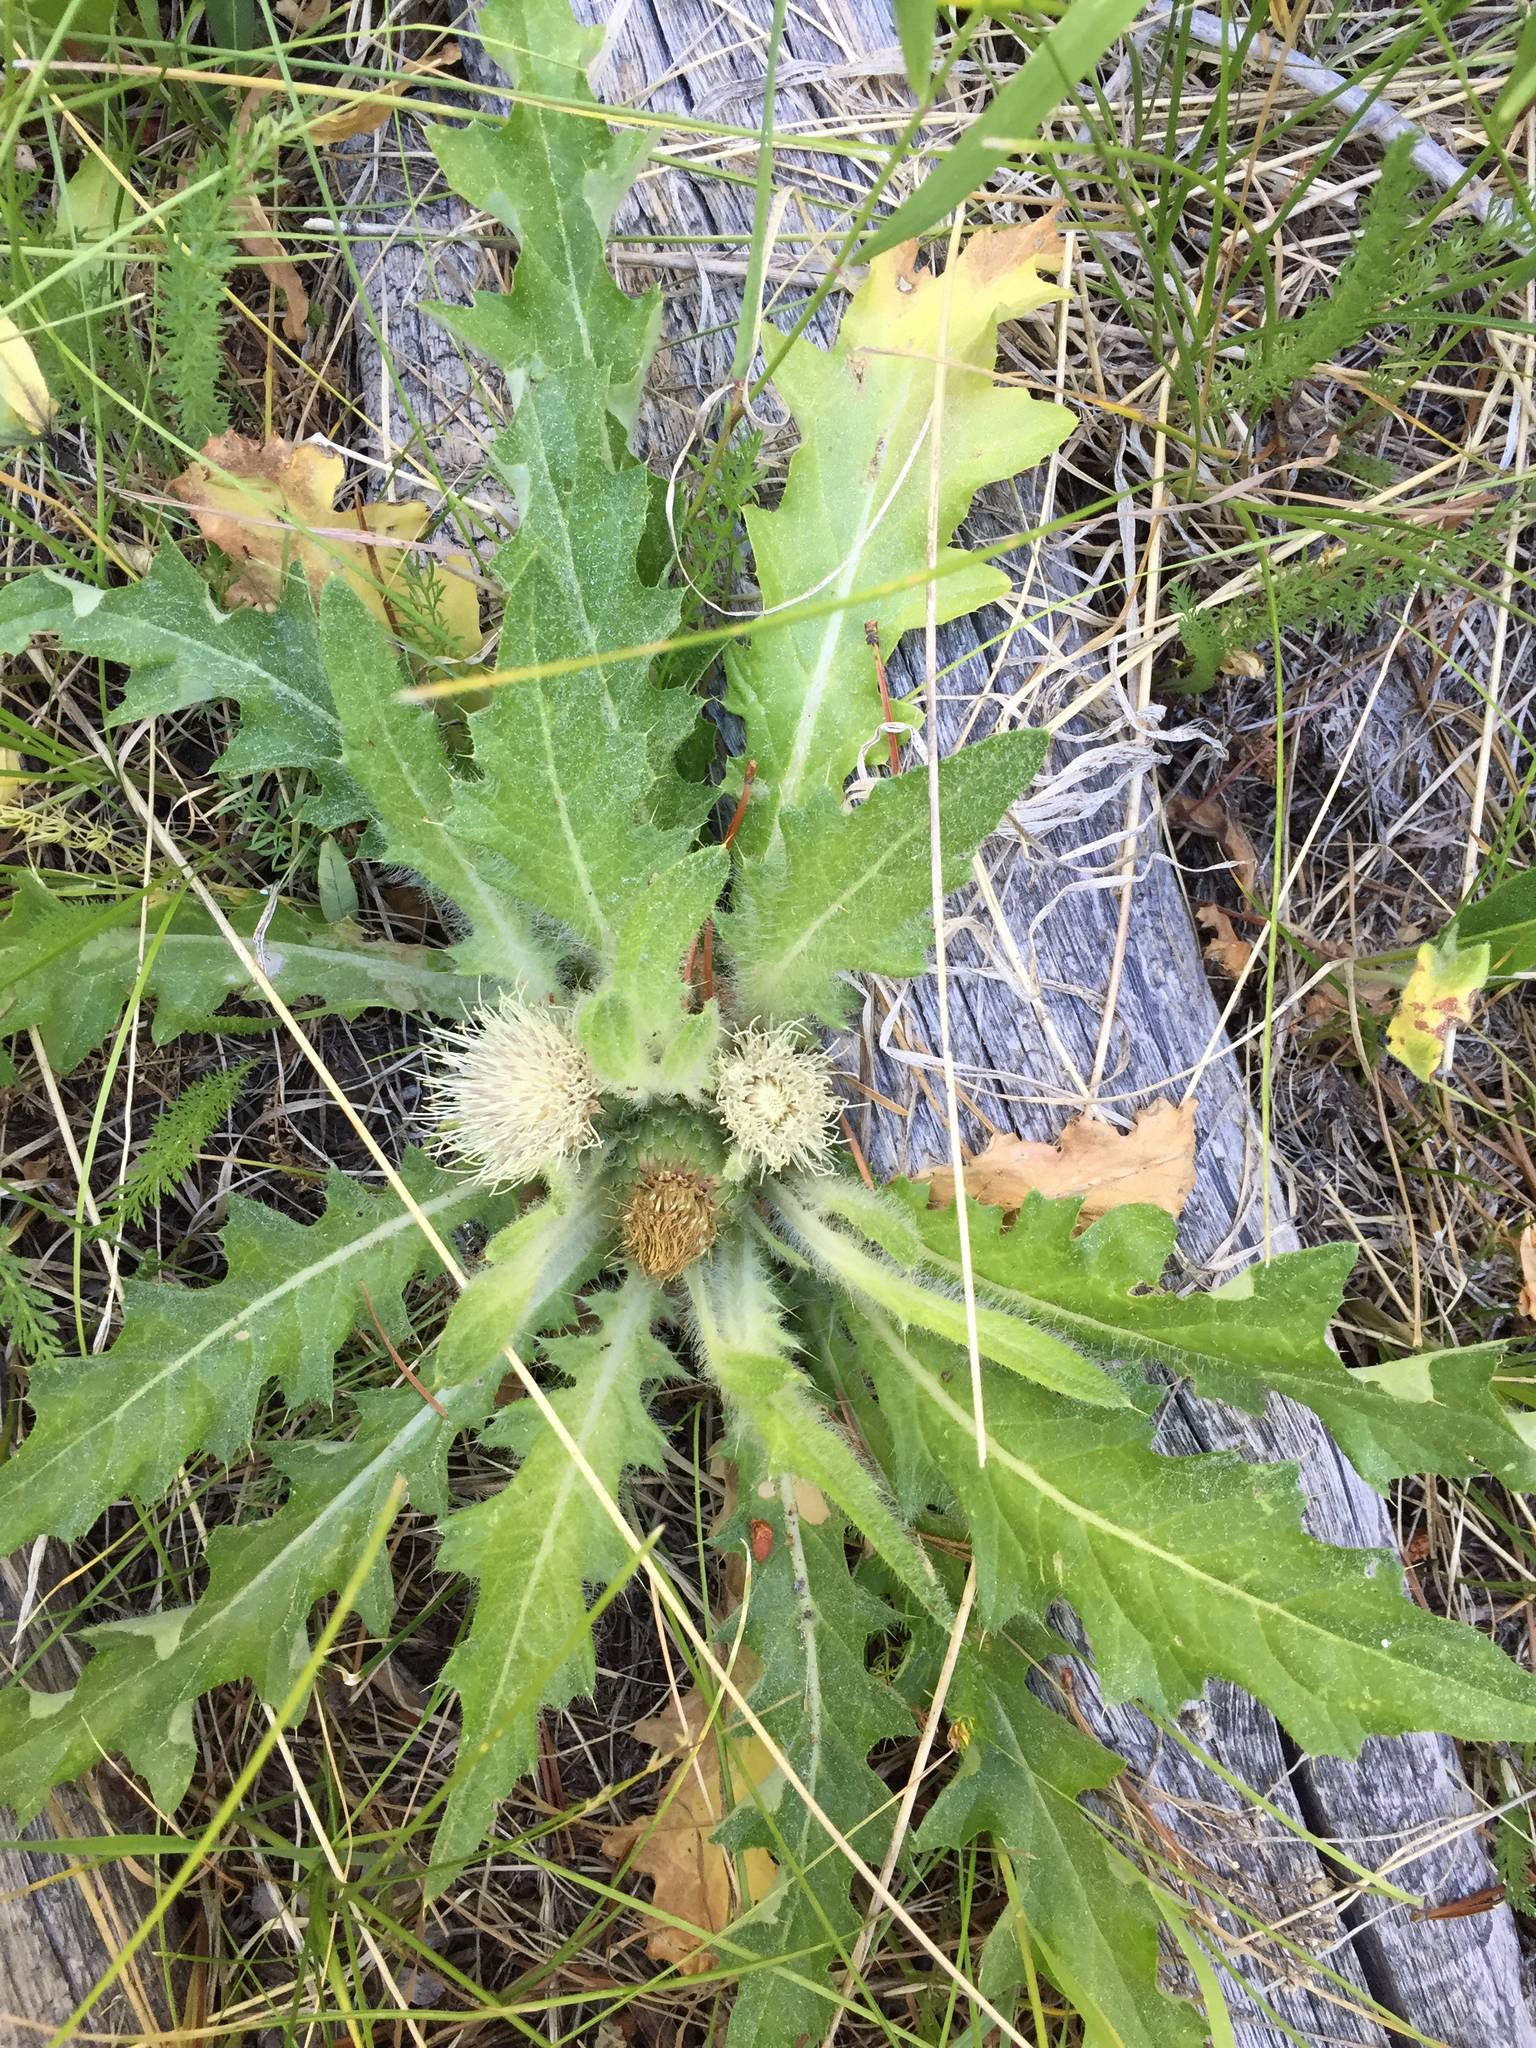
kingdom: Plantae
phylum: Tracheophyta
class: Magnoliopsida
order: Asterales
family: Asteraceae
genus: Cirsium
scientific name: Cirsium scariosum
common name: Meadow thistle
